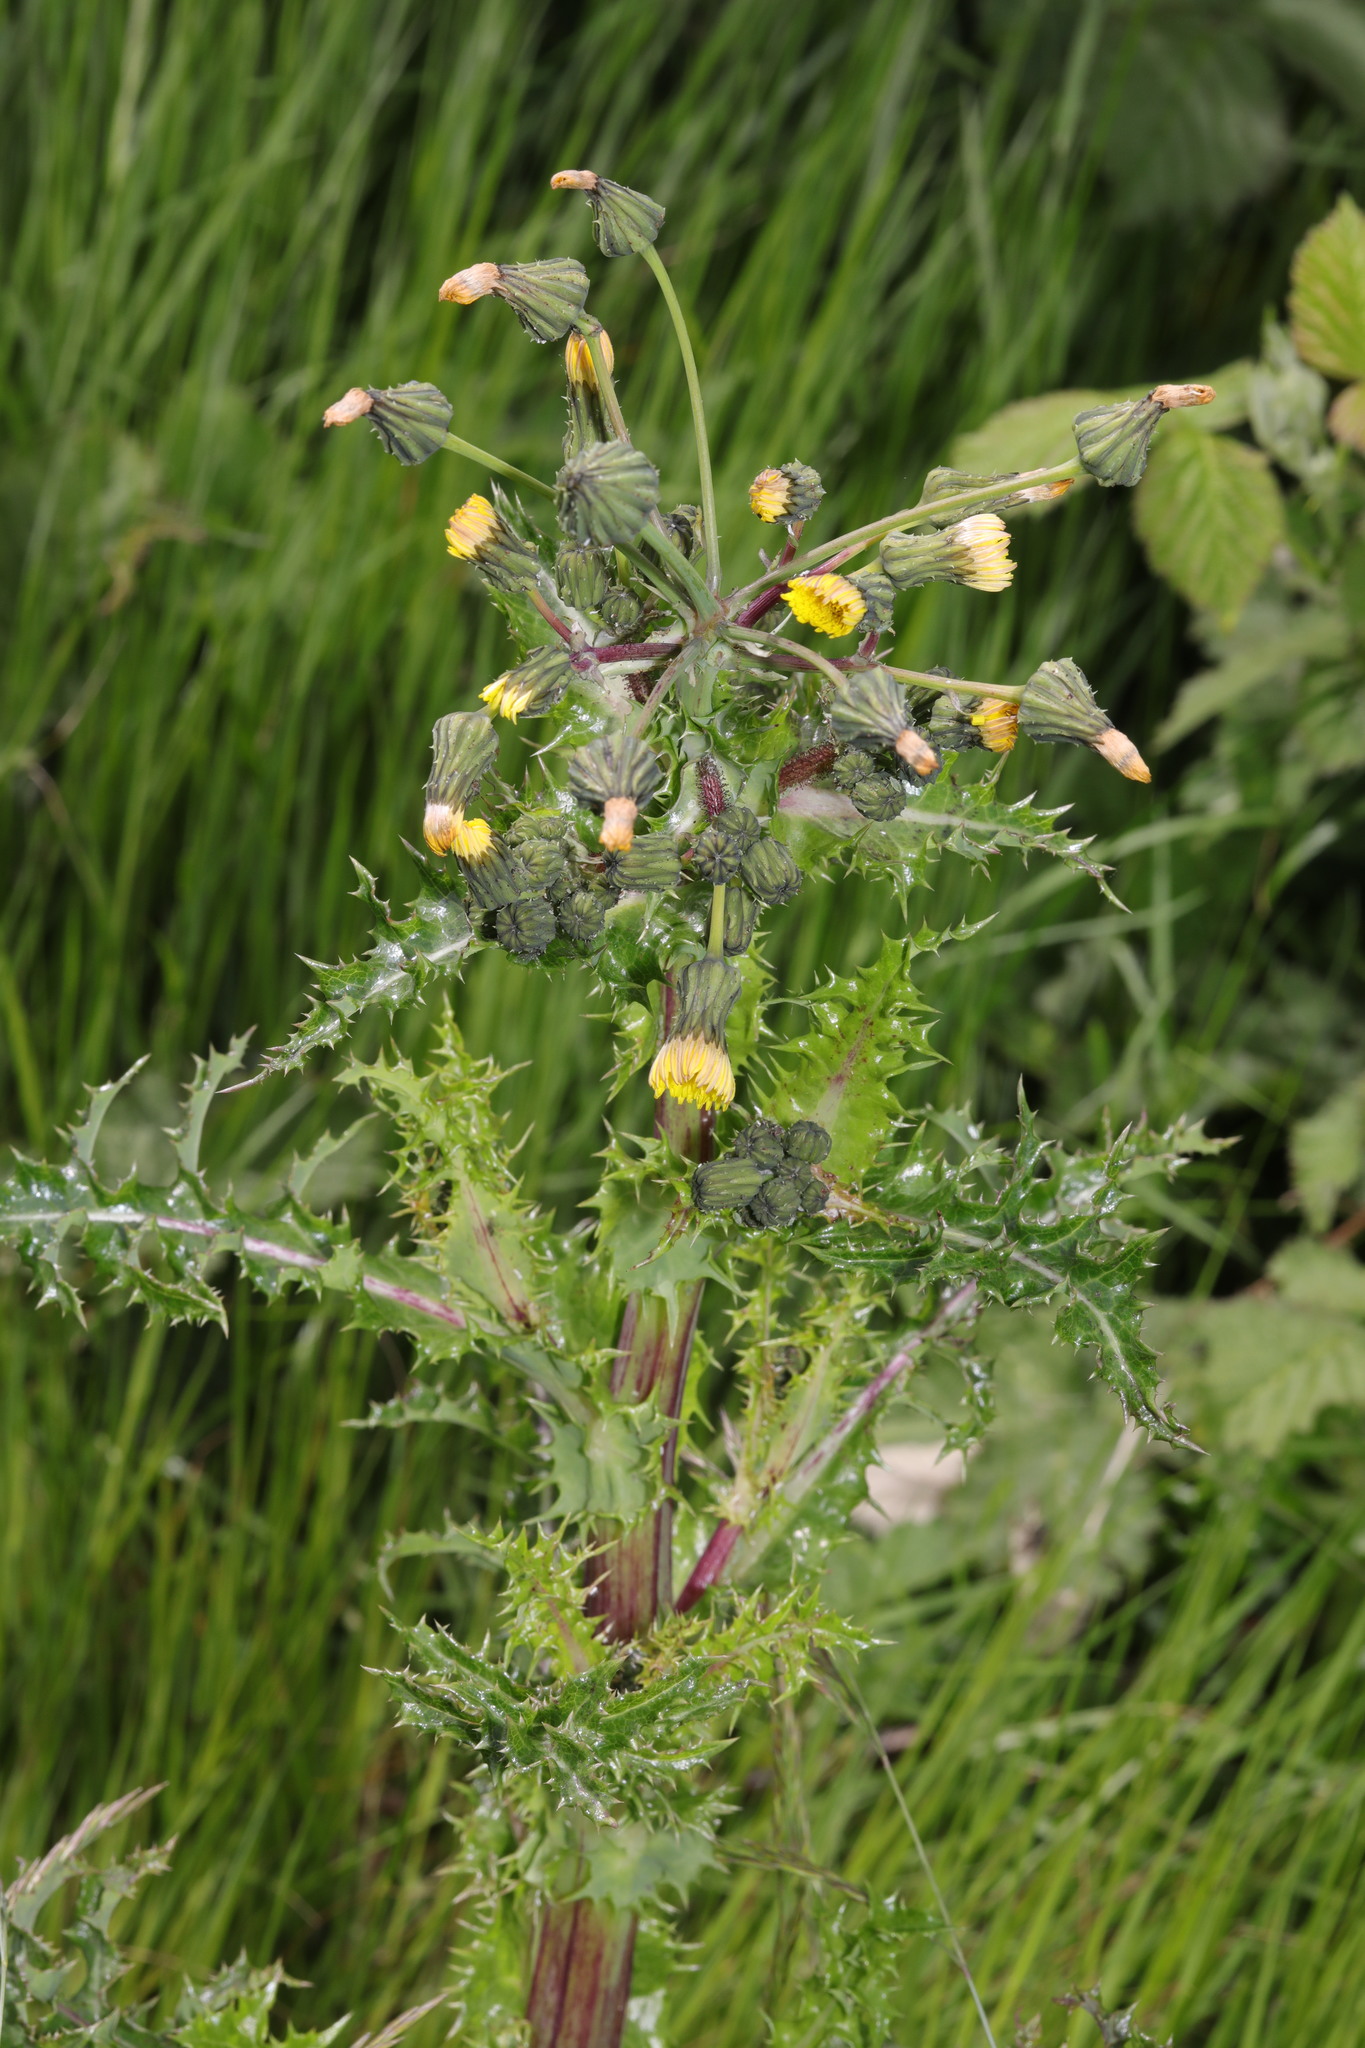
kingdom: Plantae
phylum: Tracheophyta
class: Magnoliopsida
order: Asterales
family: Asteraceae
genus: Sonchus
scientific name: Sonchus asper
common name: Prickly sow-thistle
